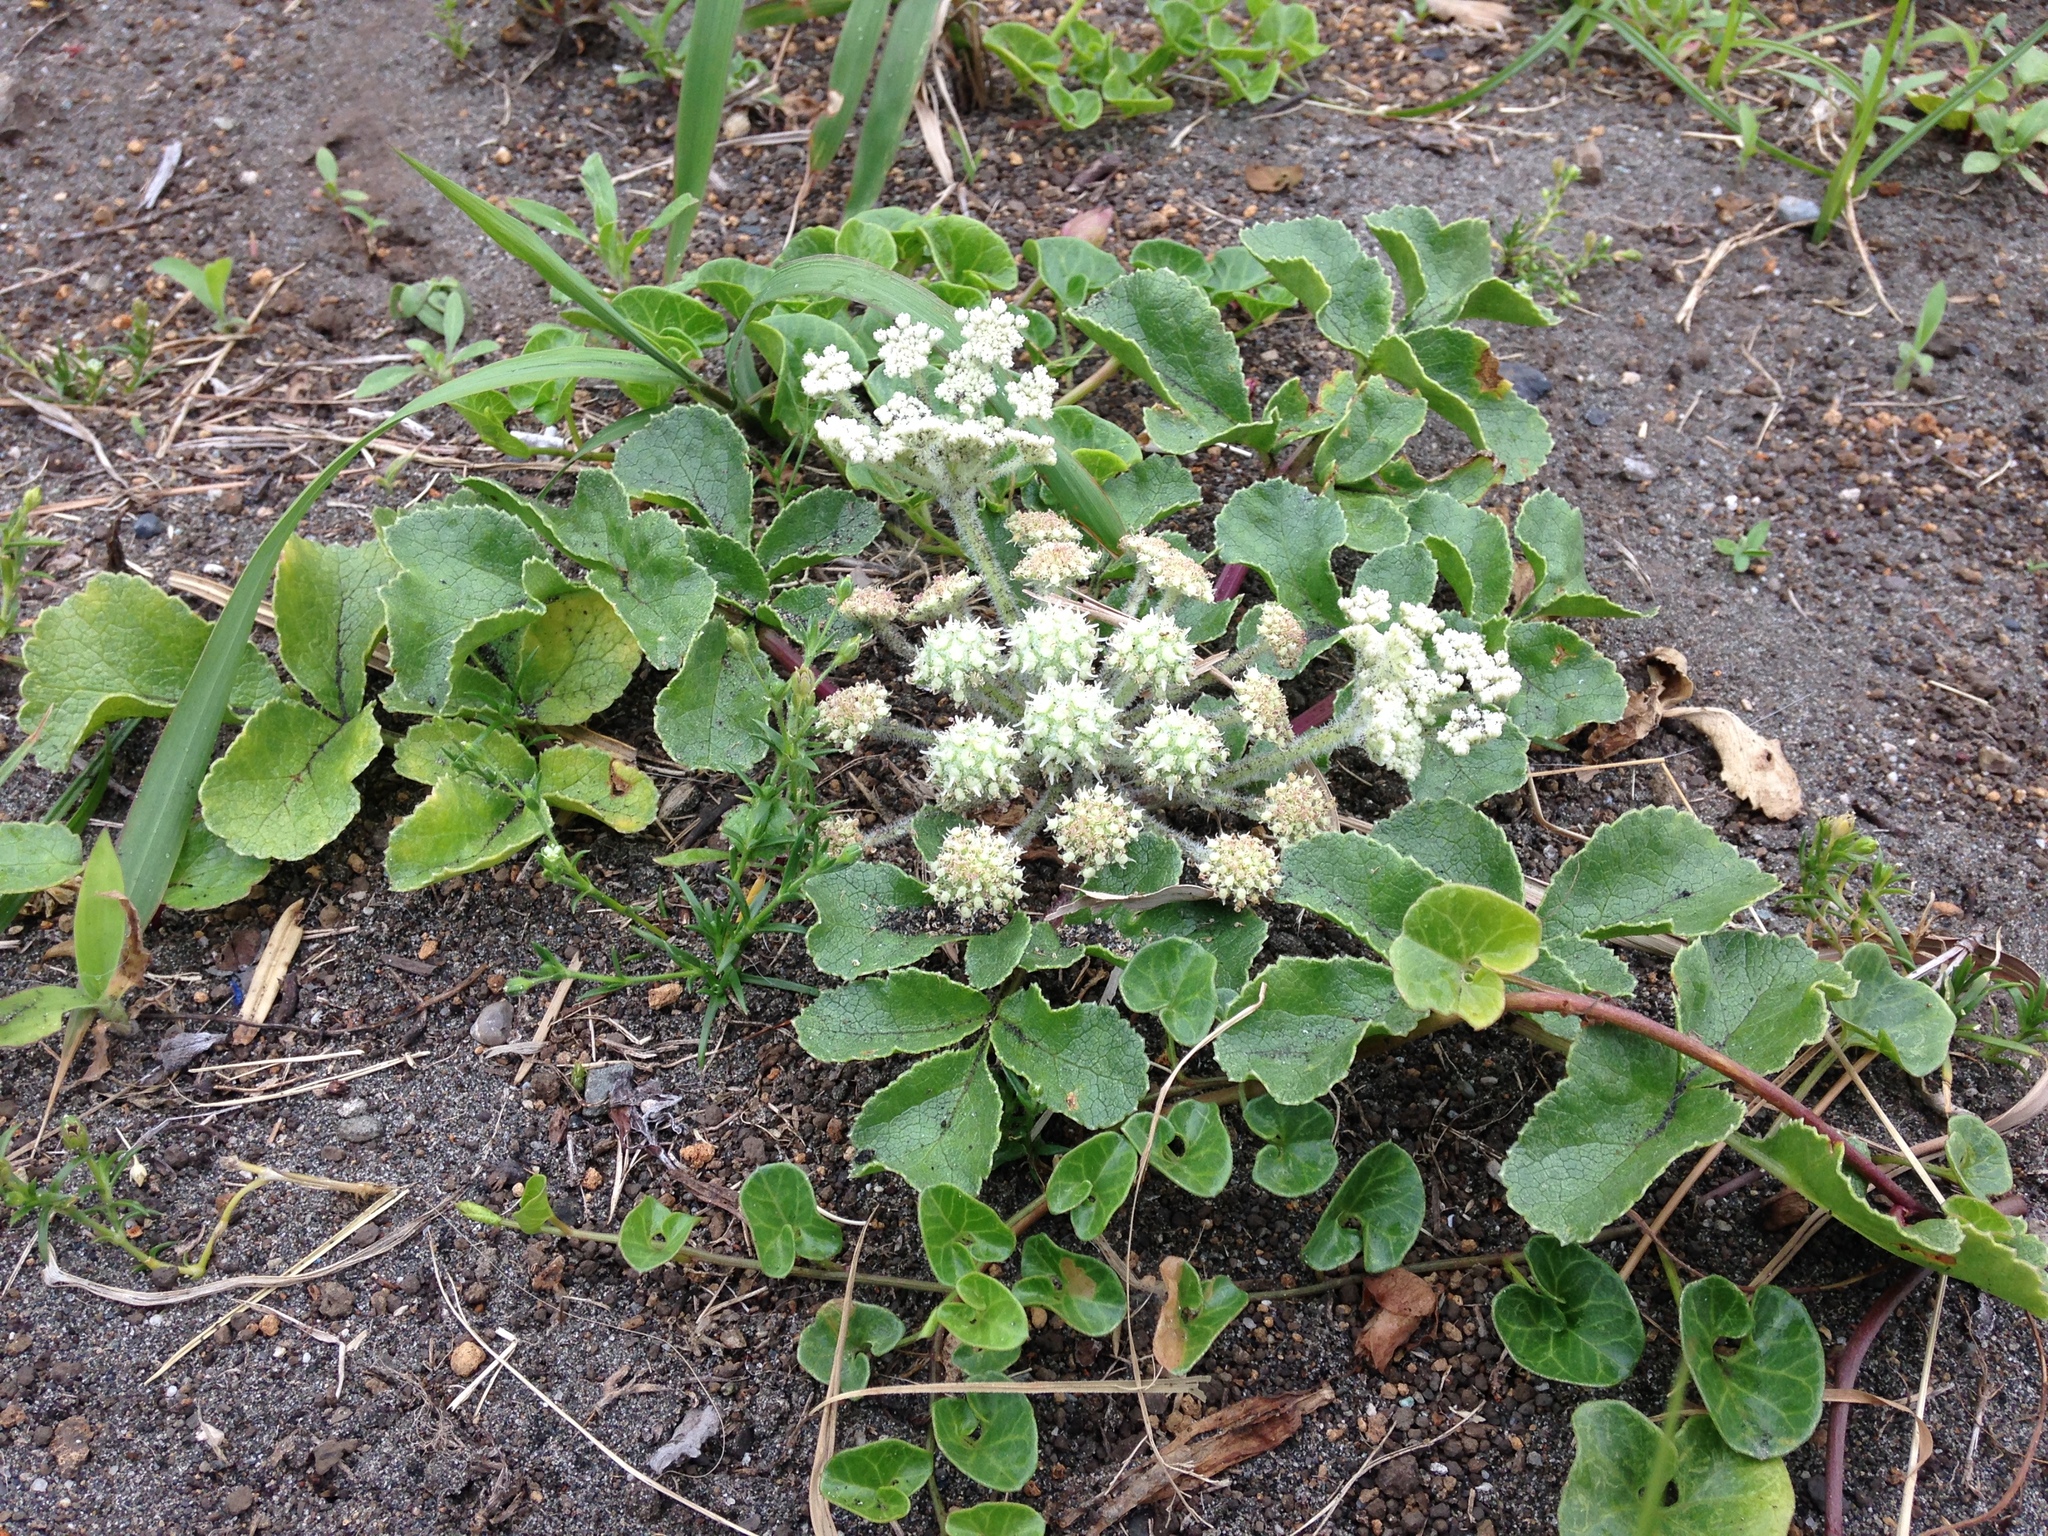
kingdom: Plantae
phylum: Tracheophyta
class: Magnoliopsida
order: Apiales
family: Apiaceae
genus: Glehnia
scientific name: Glehnia littoralis
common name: Beach silvertop
